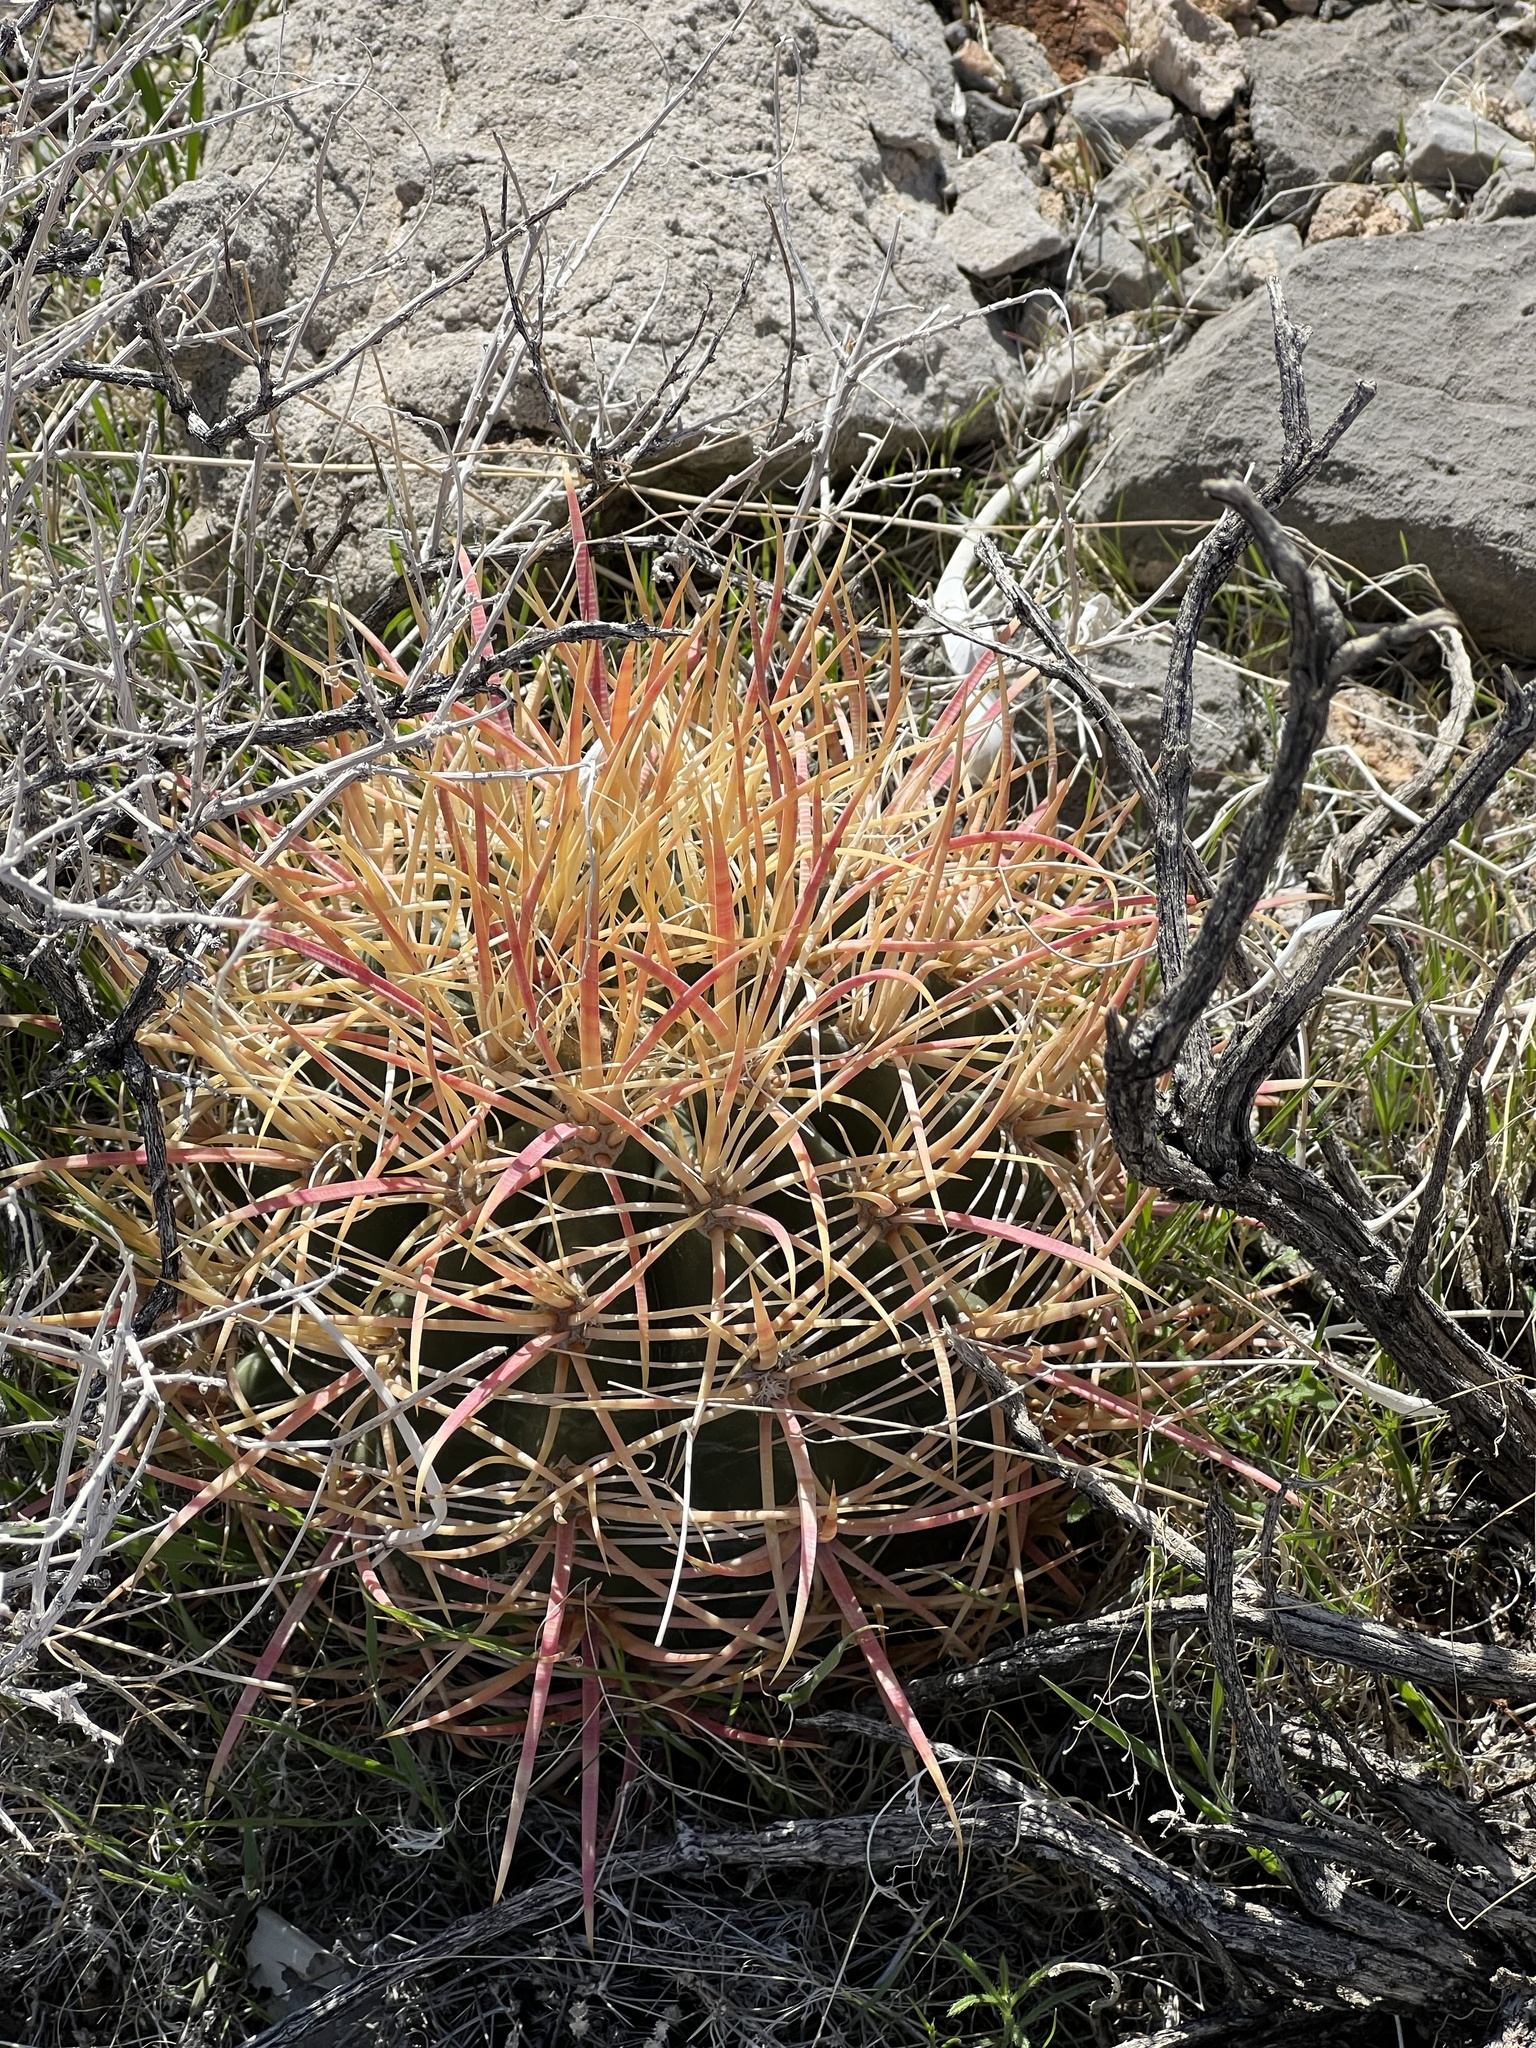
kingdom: Plantae
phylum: Tracheophyta
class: Magnoliopsida
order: Caryophyllales
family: Cactaceae
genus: Ferocactus
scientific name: Ferocactus cylindraceus
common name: California barrel cactus
